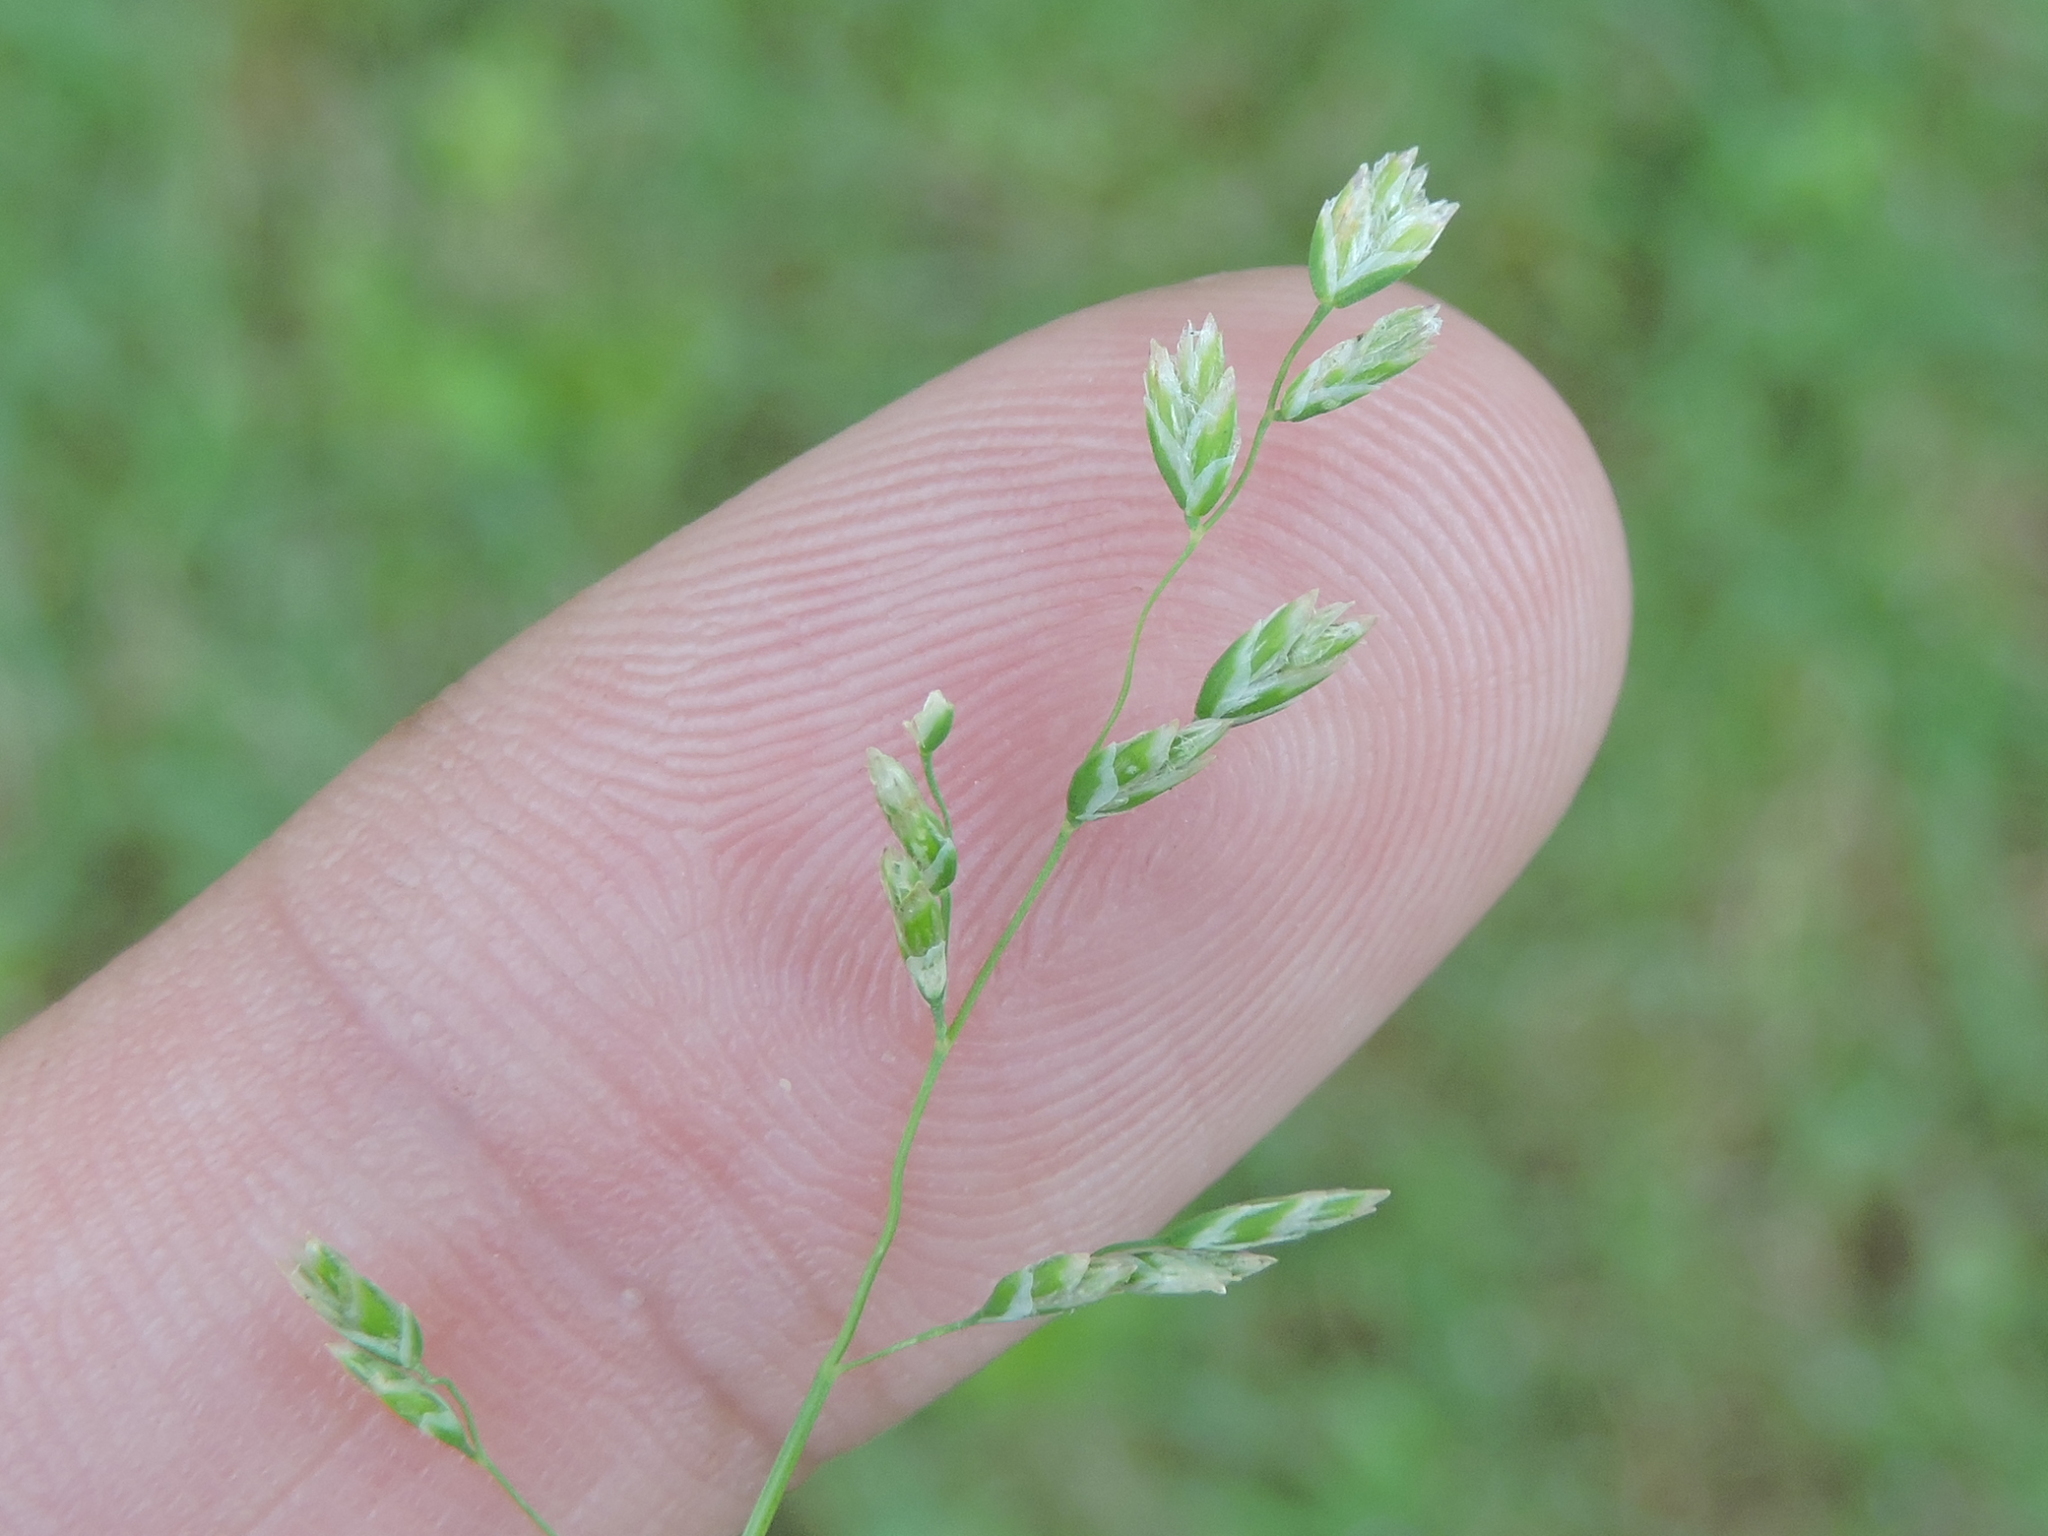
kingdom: Plantae
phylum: Tracheophyta
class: Liliopsida
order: Poales
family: Poaceae
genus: Poa
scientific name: Poa annua
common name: Annual bluegrass
